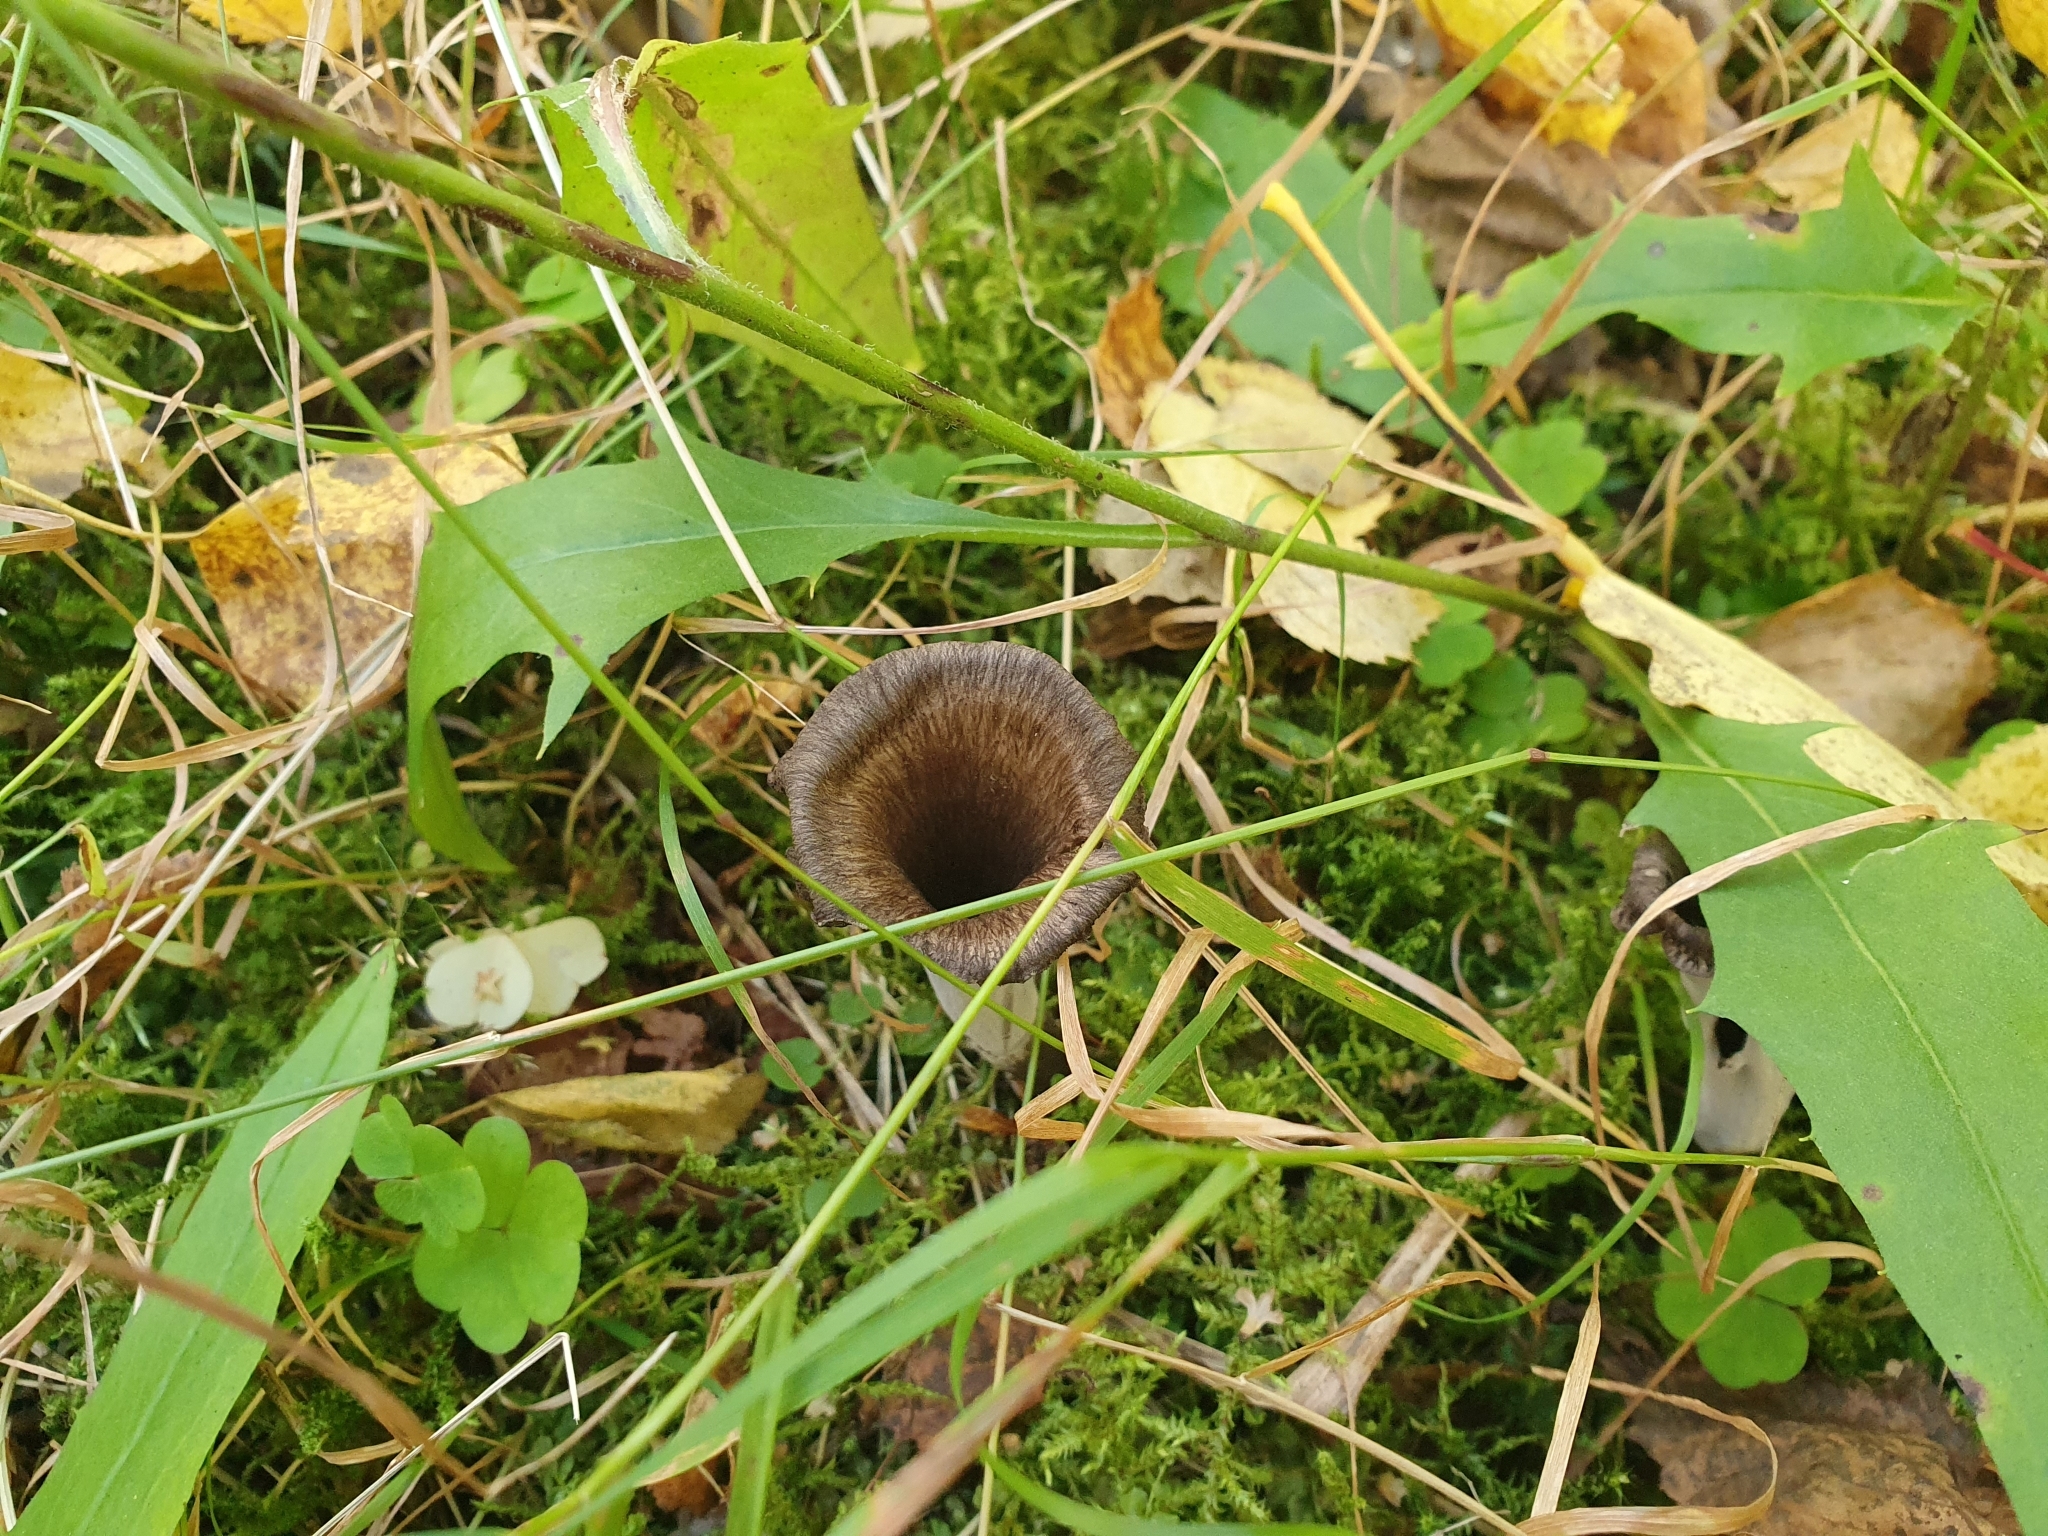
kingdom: Fungi
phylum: Basidiomycota
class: Agaricomycetes
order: Cantharellales
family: Hydnaceae
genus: Craterellus
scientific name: Craterellus cornucopioides
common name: Horn of plenty
